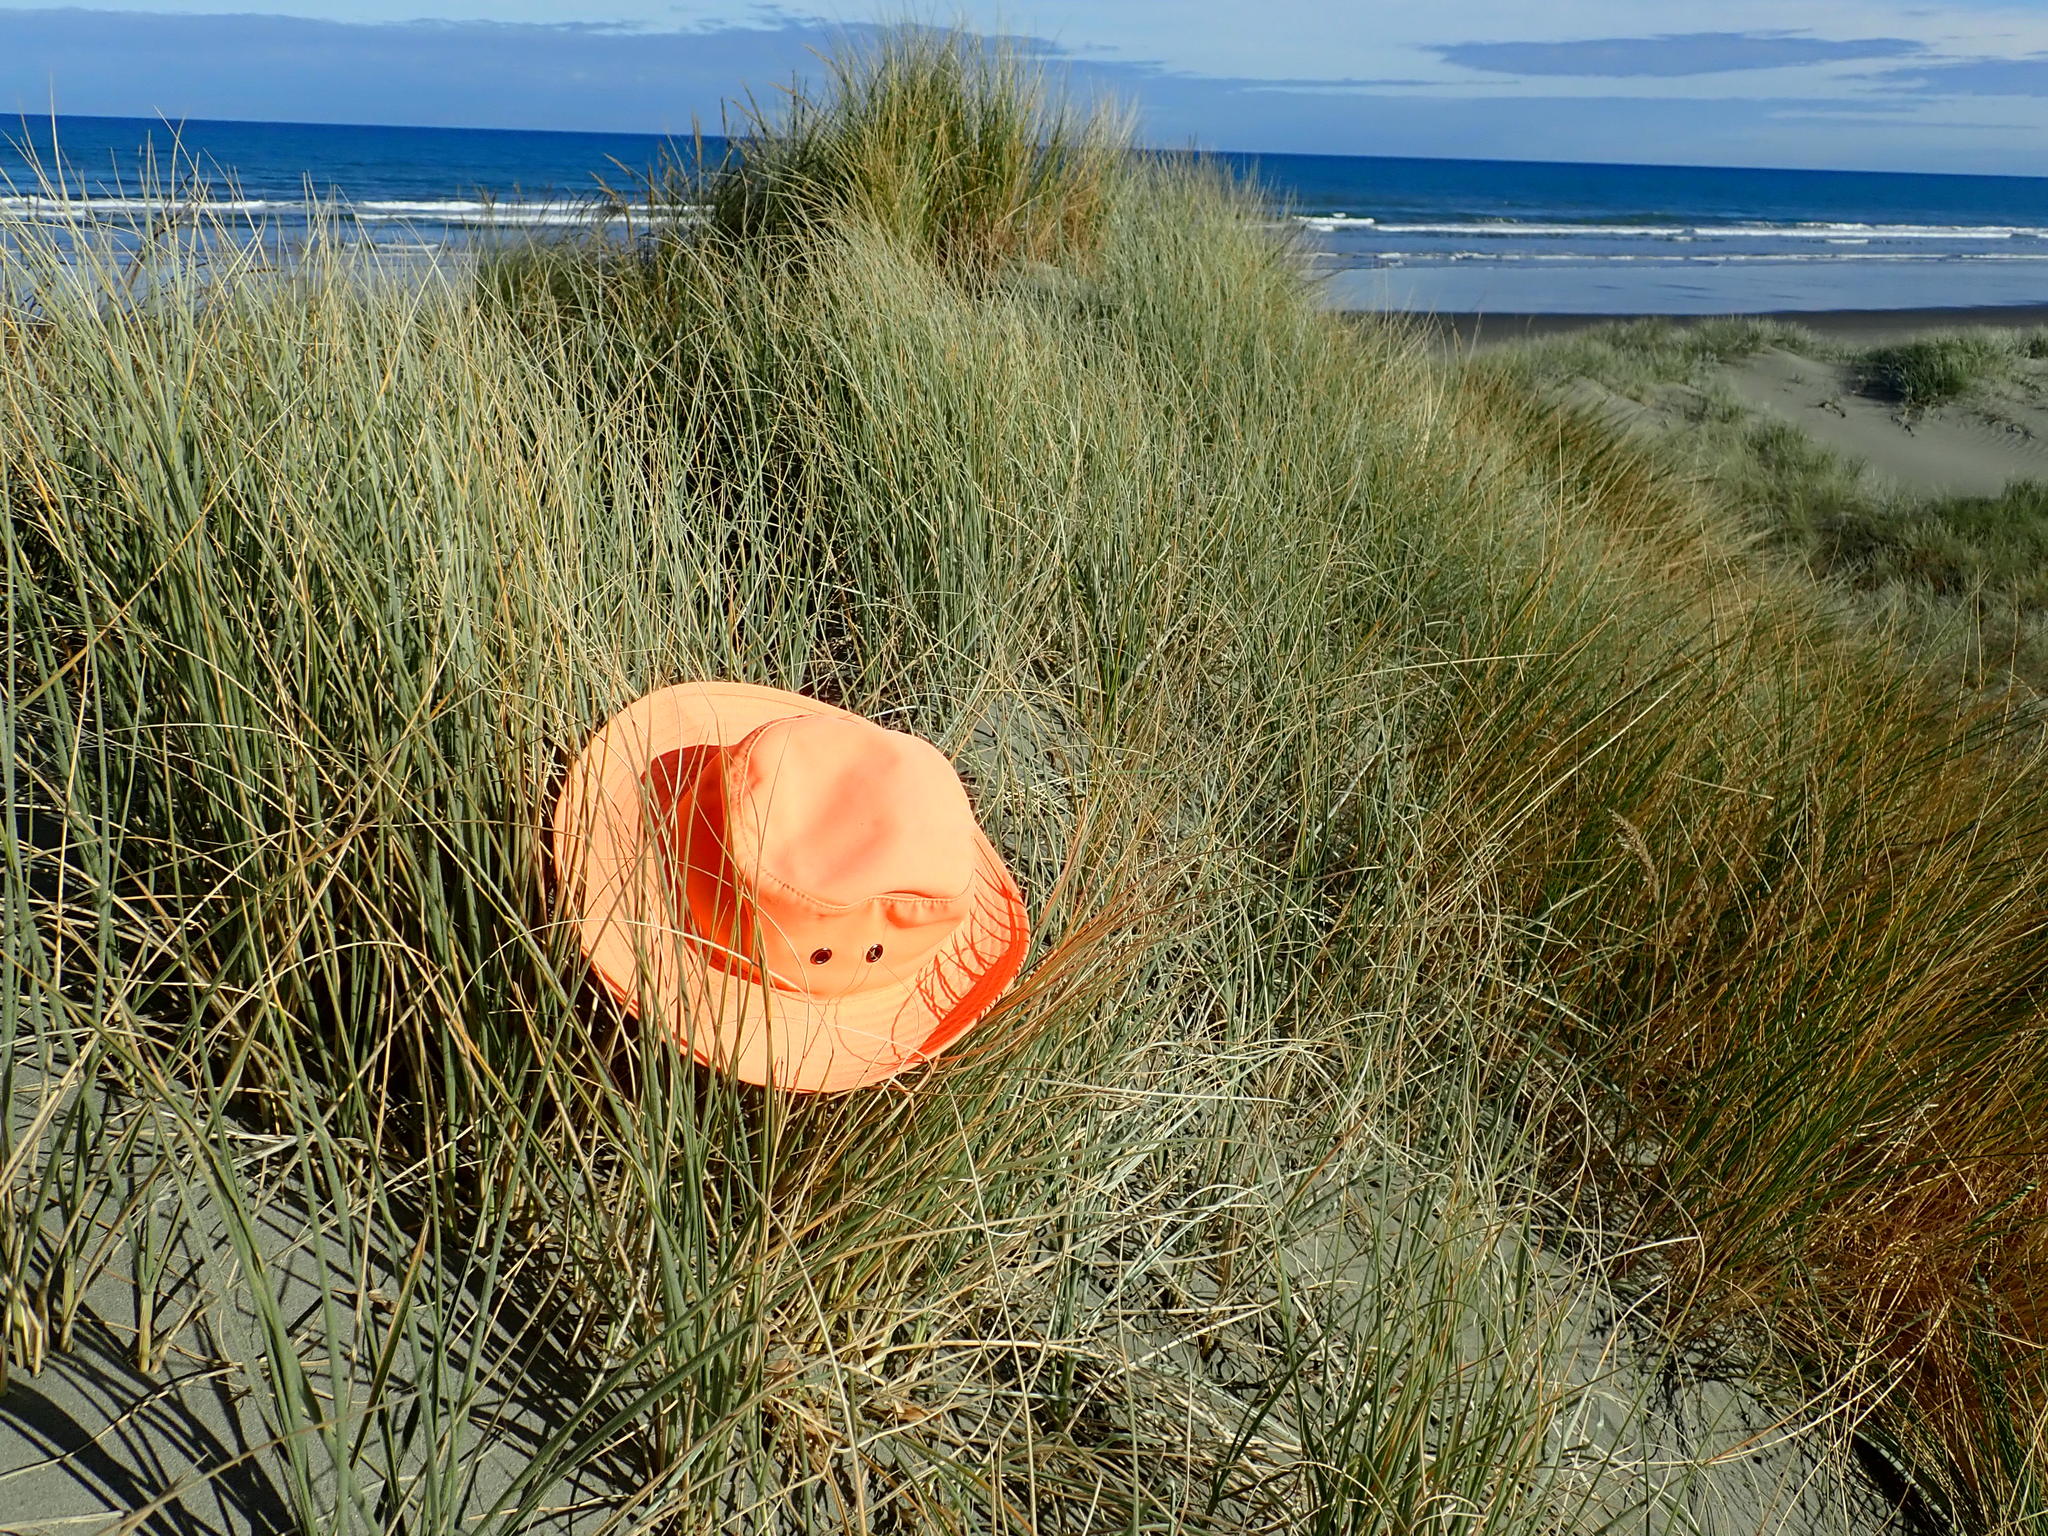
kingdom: Animalia
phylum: Arthropoda
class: Arachnida
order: Araneae
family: Theridiidae
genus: Latrodectus
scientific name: Latrodectus katipo
